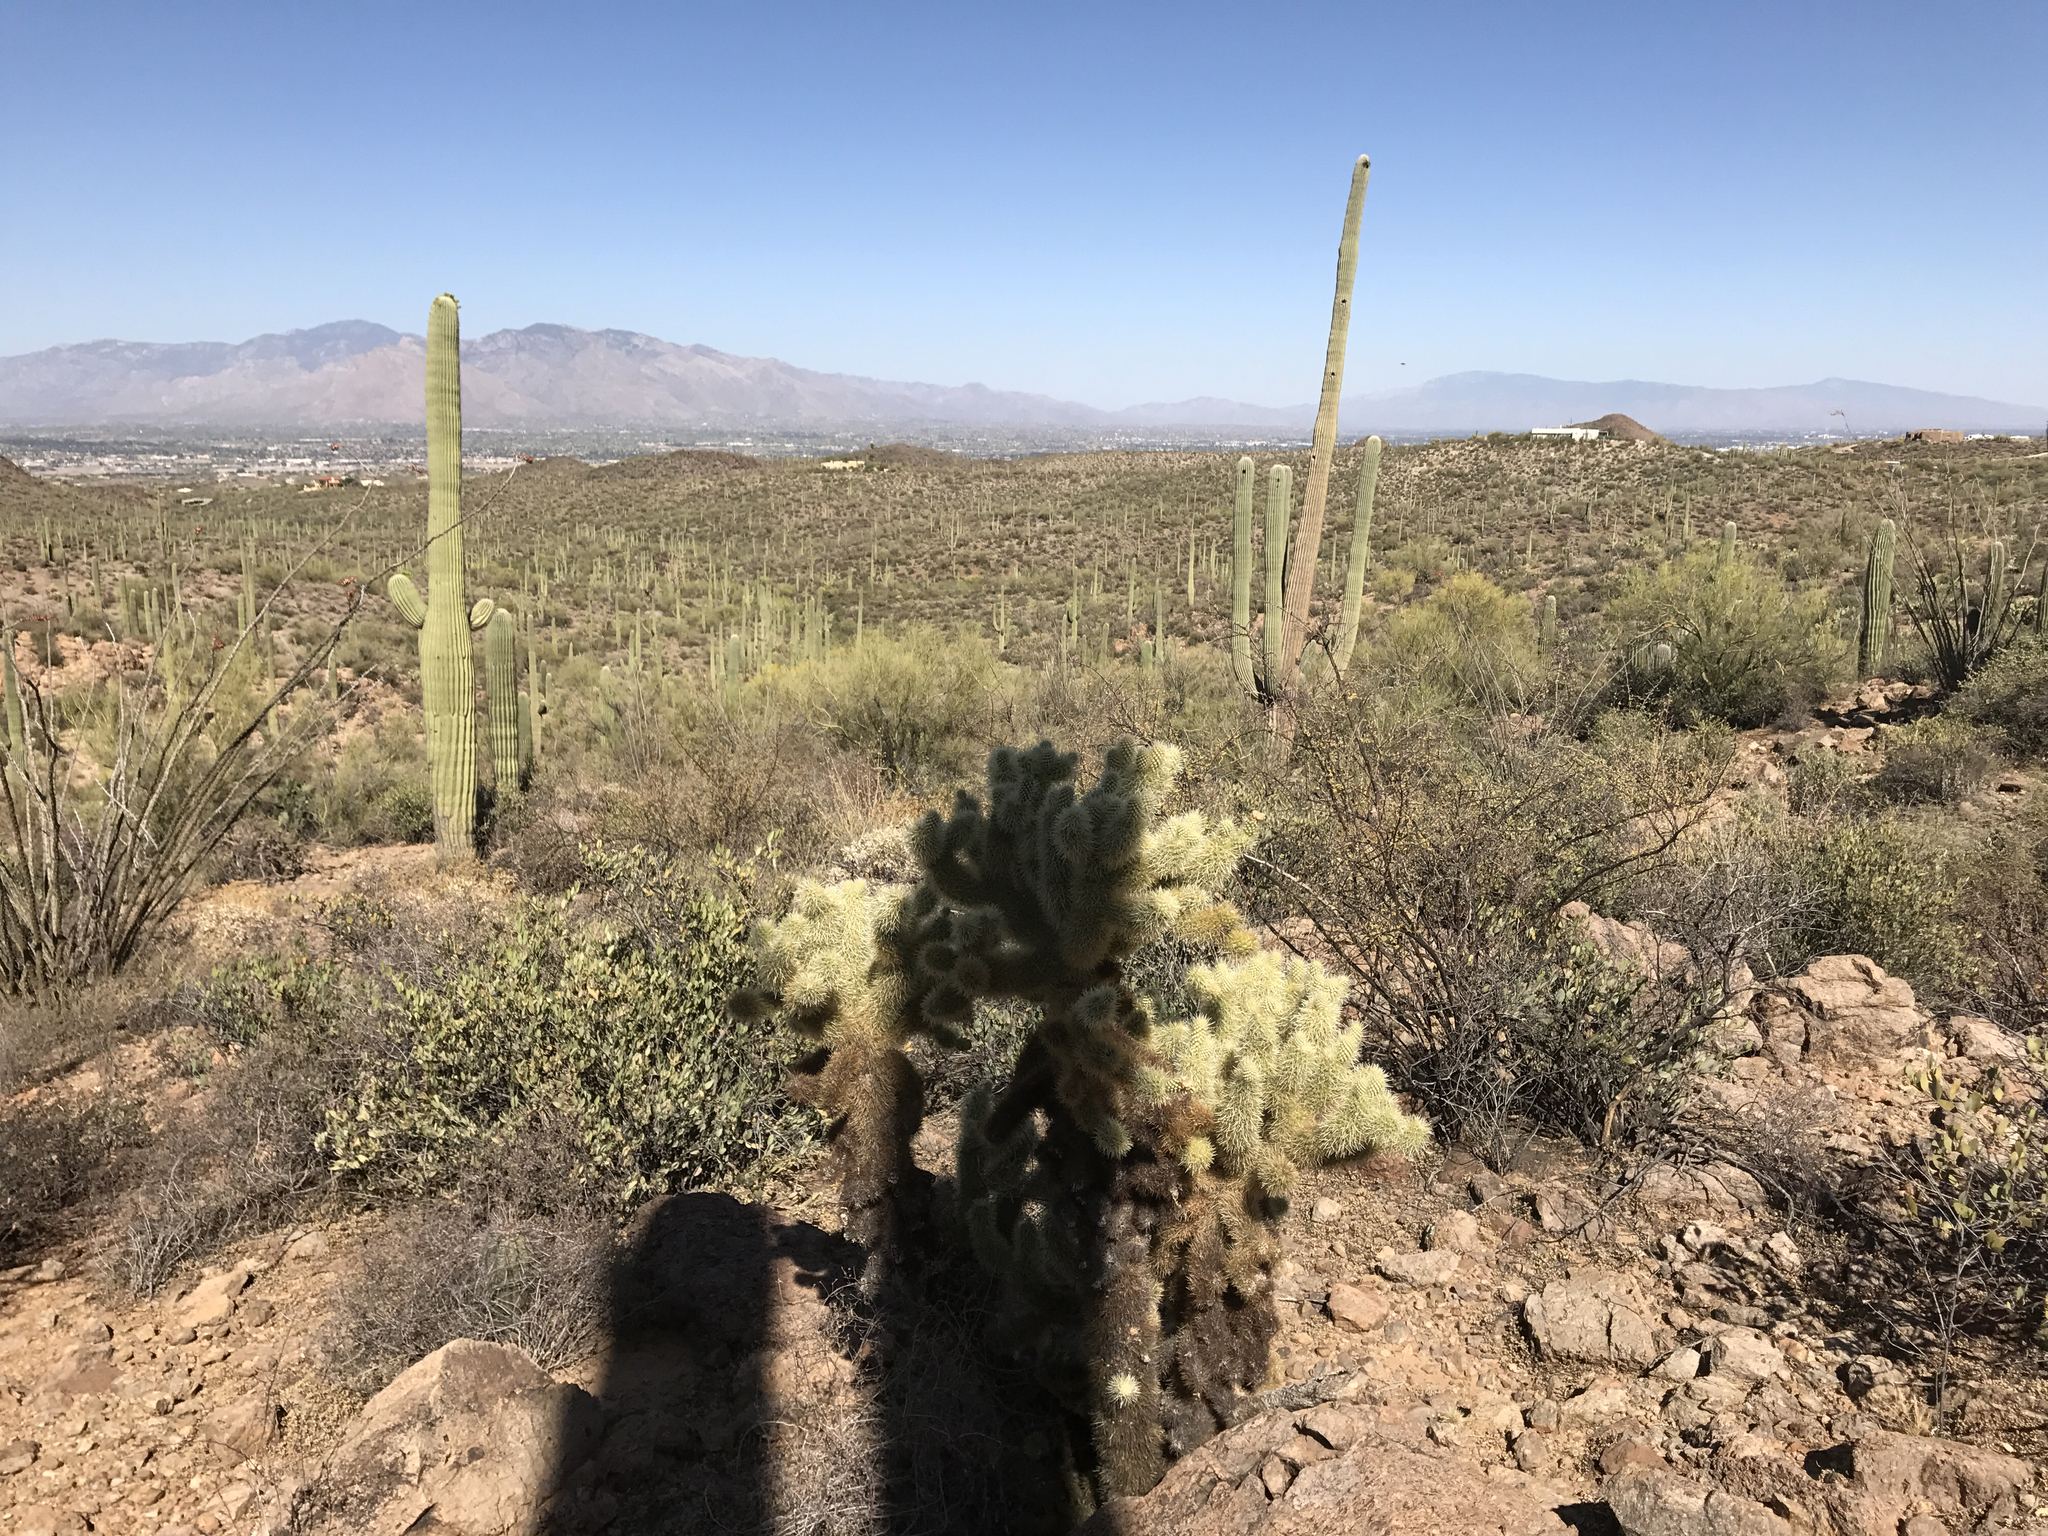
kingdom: Plantae
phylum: Tracheophyta
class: Magnoliopsida
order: Caryophyllales
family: Cactaceae
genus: Cylindropuntia
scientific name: Cylindropuntia fosbergii
